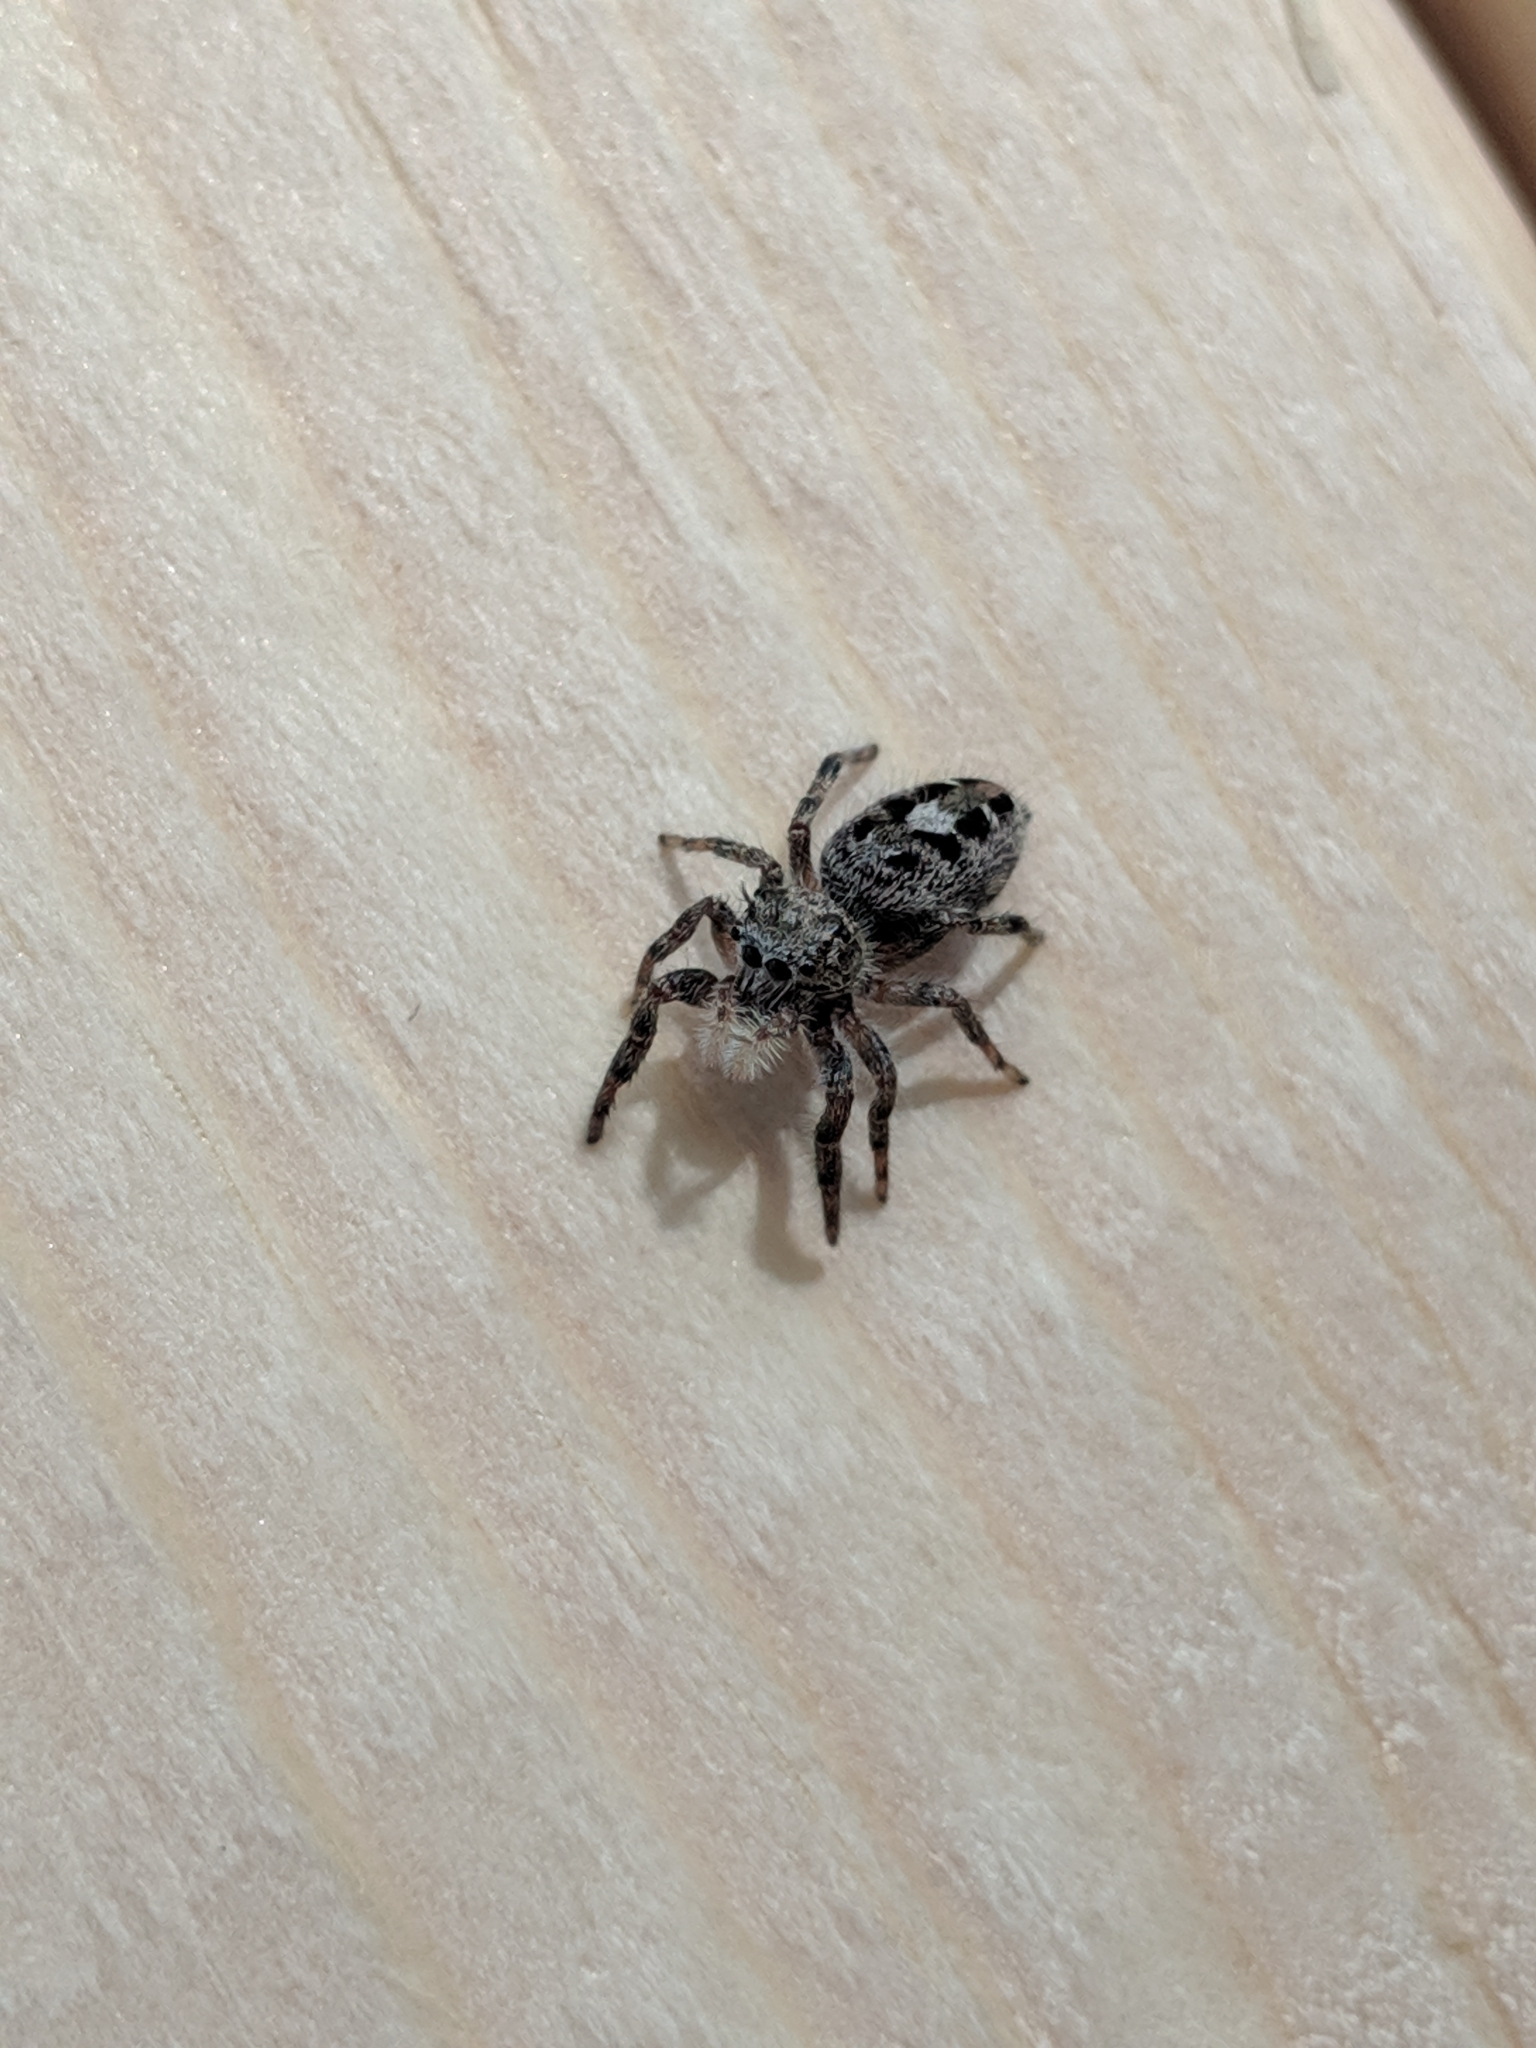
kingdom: Animalia
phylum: Arthropoda
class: Arachnida
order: Araneae
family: Salticidae
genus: Phidippus
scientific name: Phidippus putnami
